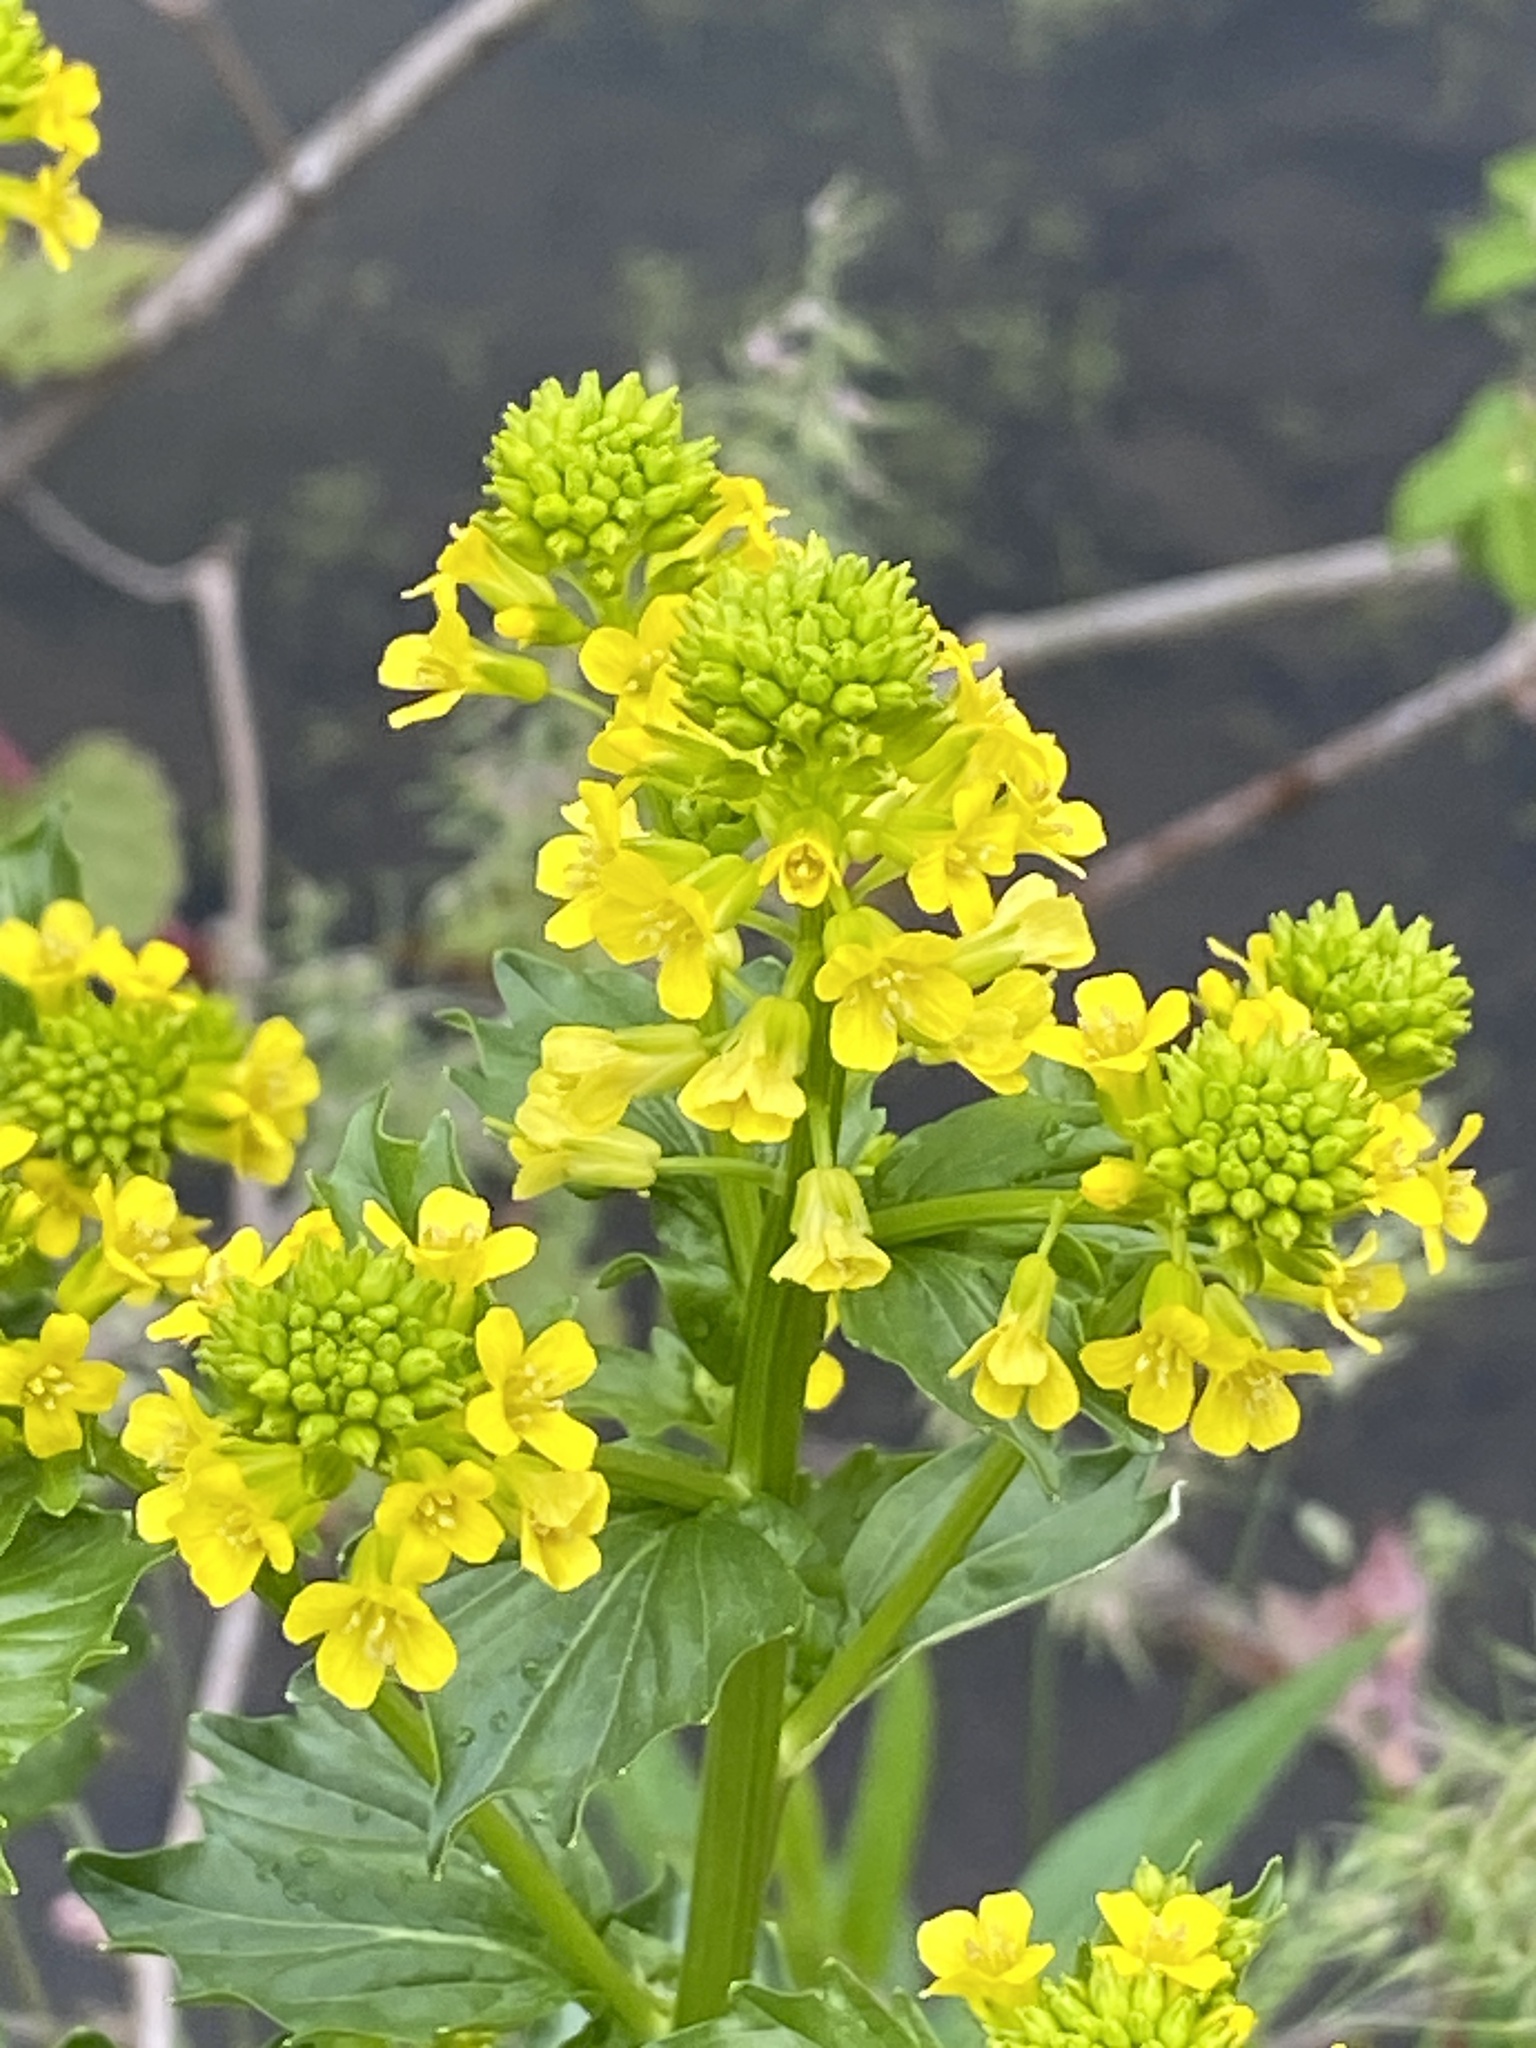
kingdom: Plantae
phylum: Tracheophyta
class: Magnoliopsida
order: Brassicales
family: Brassicaceae
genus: Barbarea
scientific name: Barbarea vulgaris
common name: Cressy-greens
